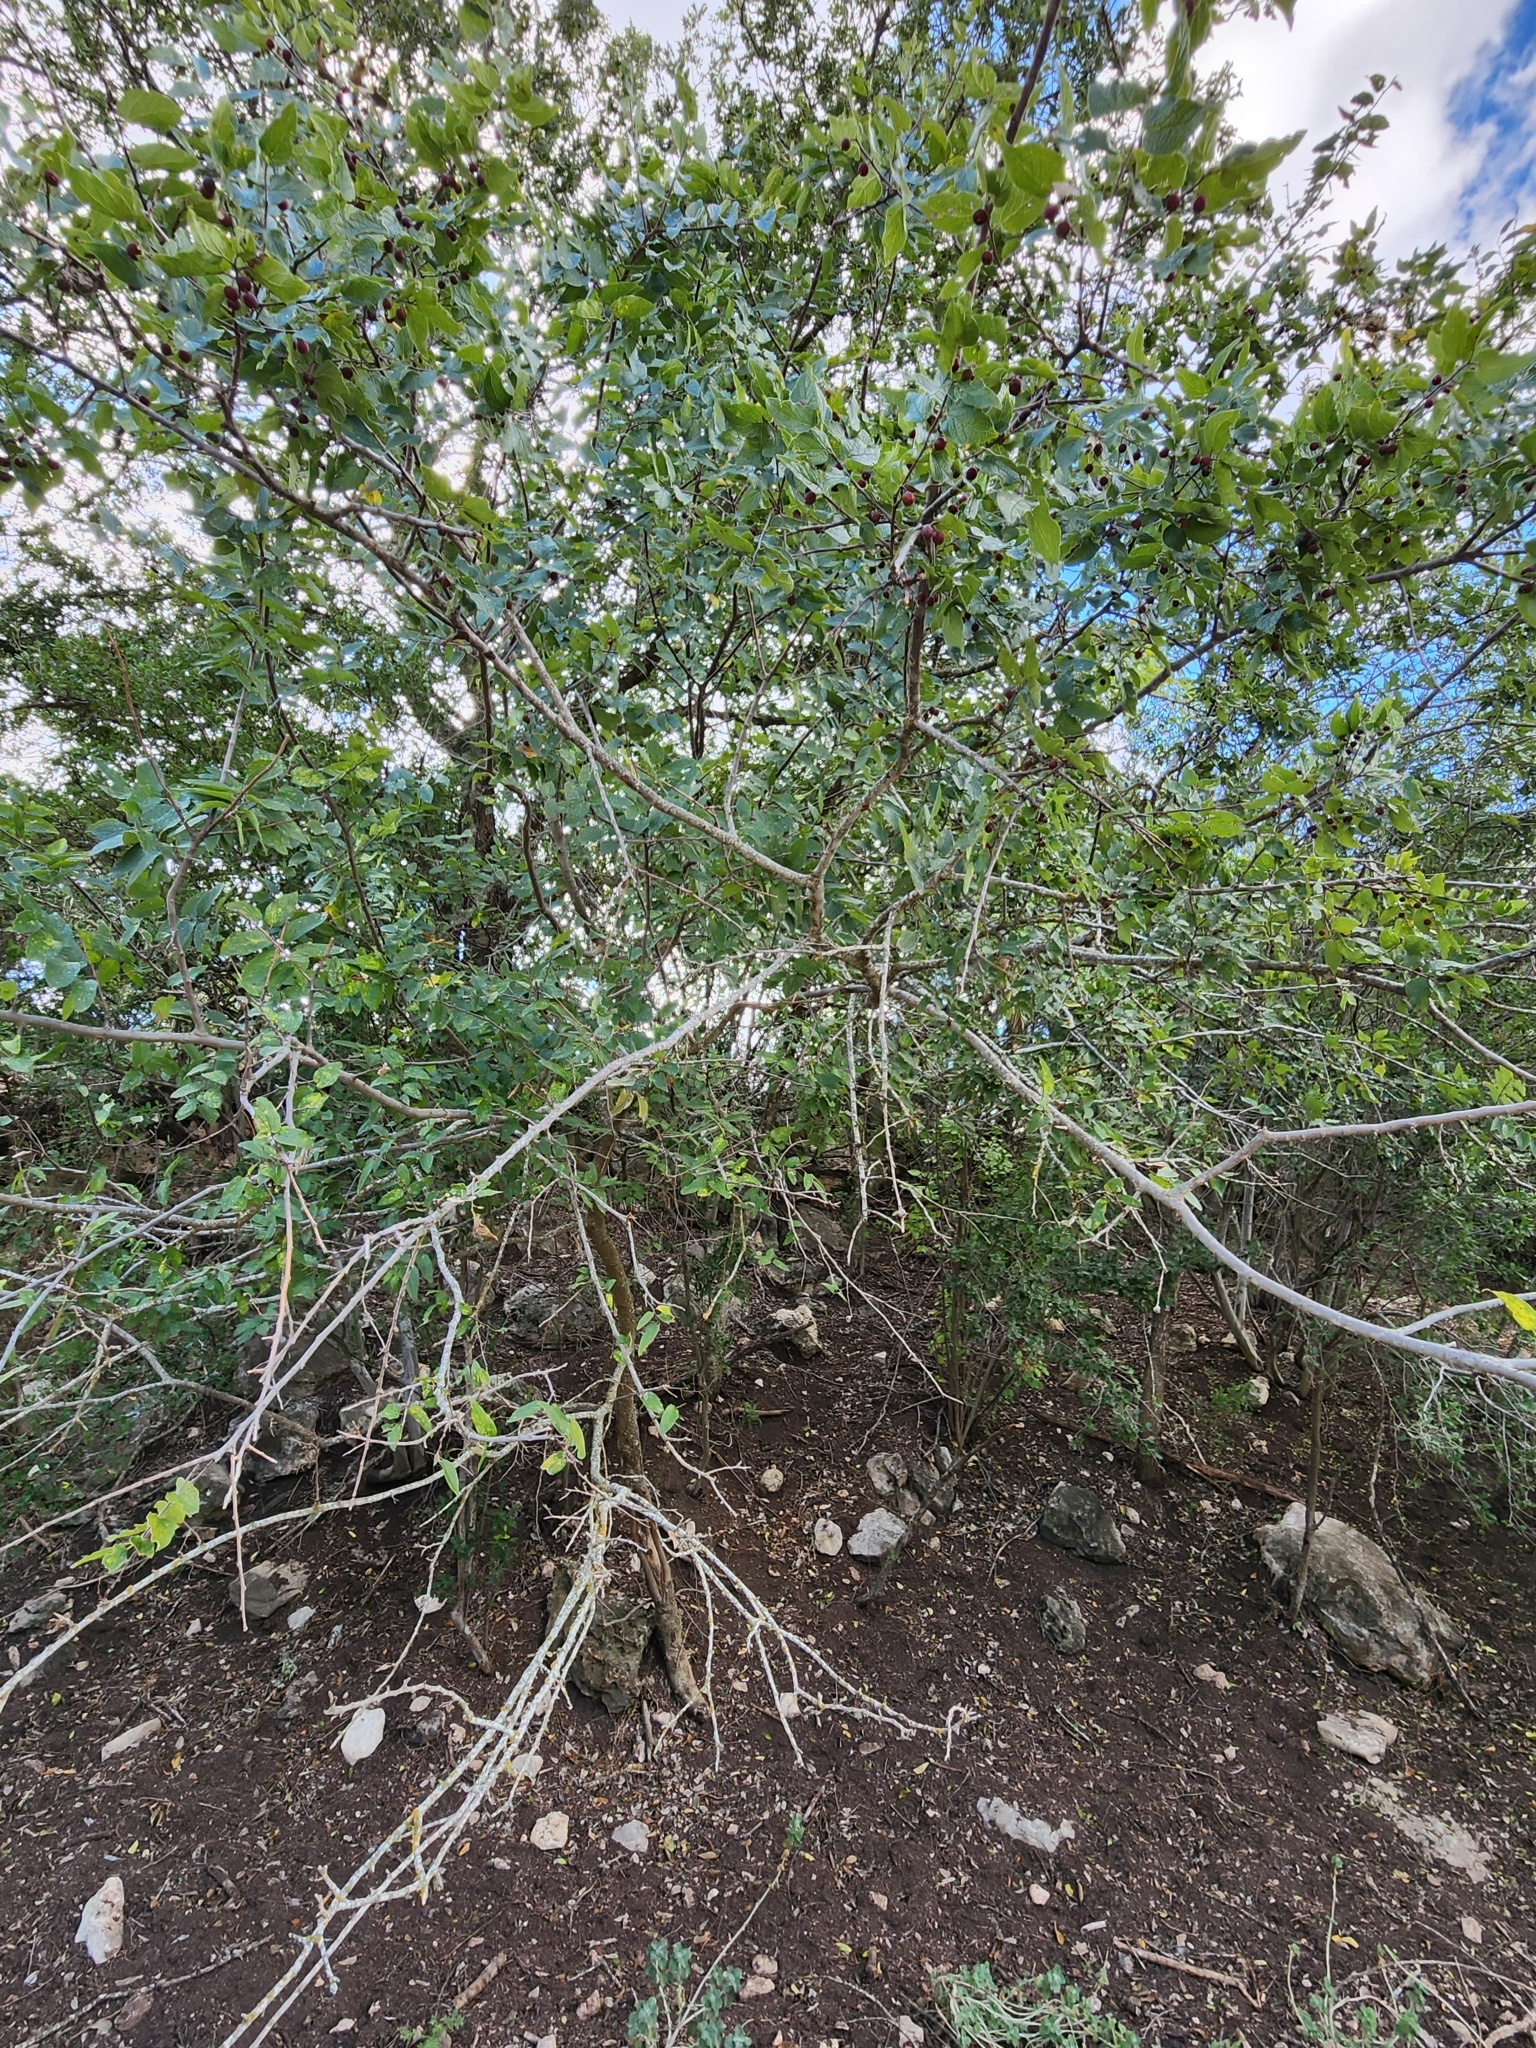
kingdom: Plantae
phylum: Tracheophyta
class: Magnoliopsida
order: Rosales
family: Cannabaceae
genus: Celtis
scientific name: Celtis reticulata
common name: Netleaf hackberry
